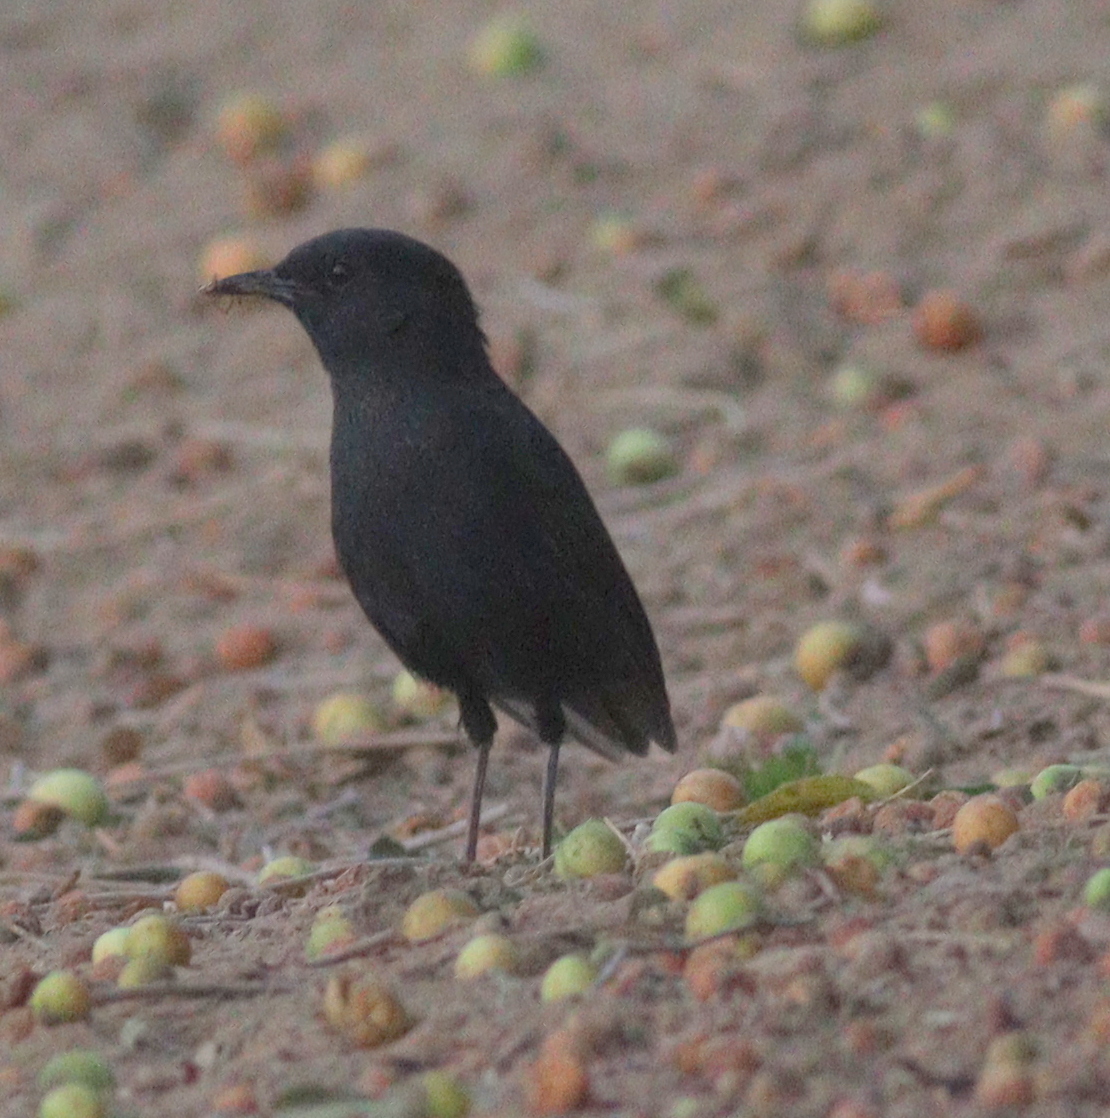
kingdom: Animalia
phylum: Chordata
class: Aves
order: Passeriformes
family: Muscicapidae
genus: Cercotrichas
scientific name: Cercotrichas podobe
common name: Black scrub robin
